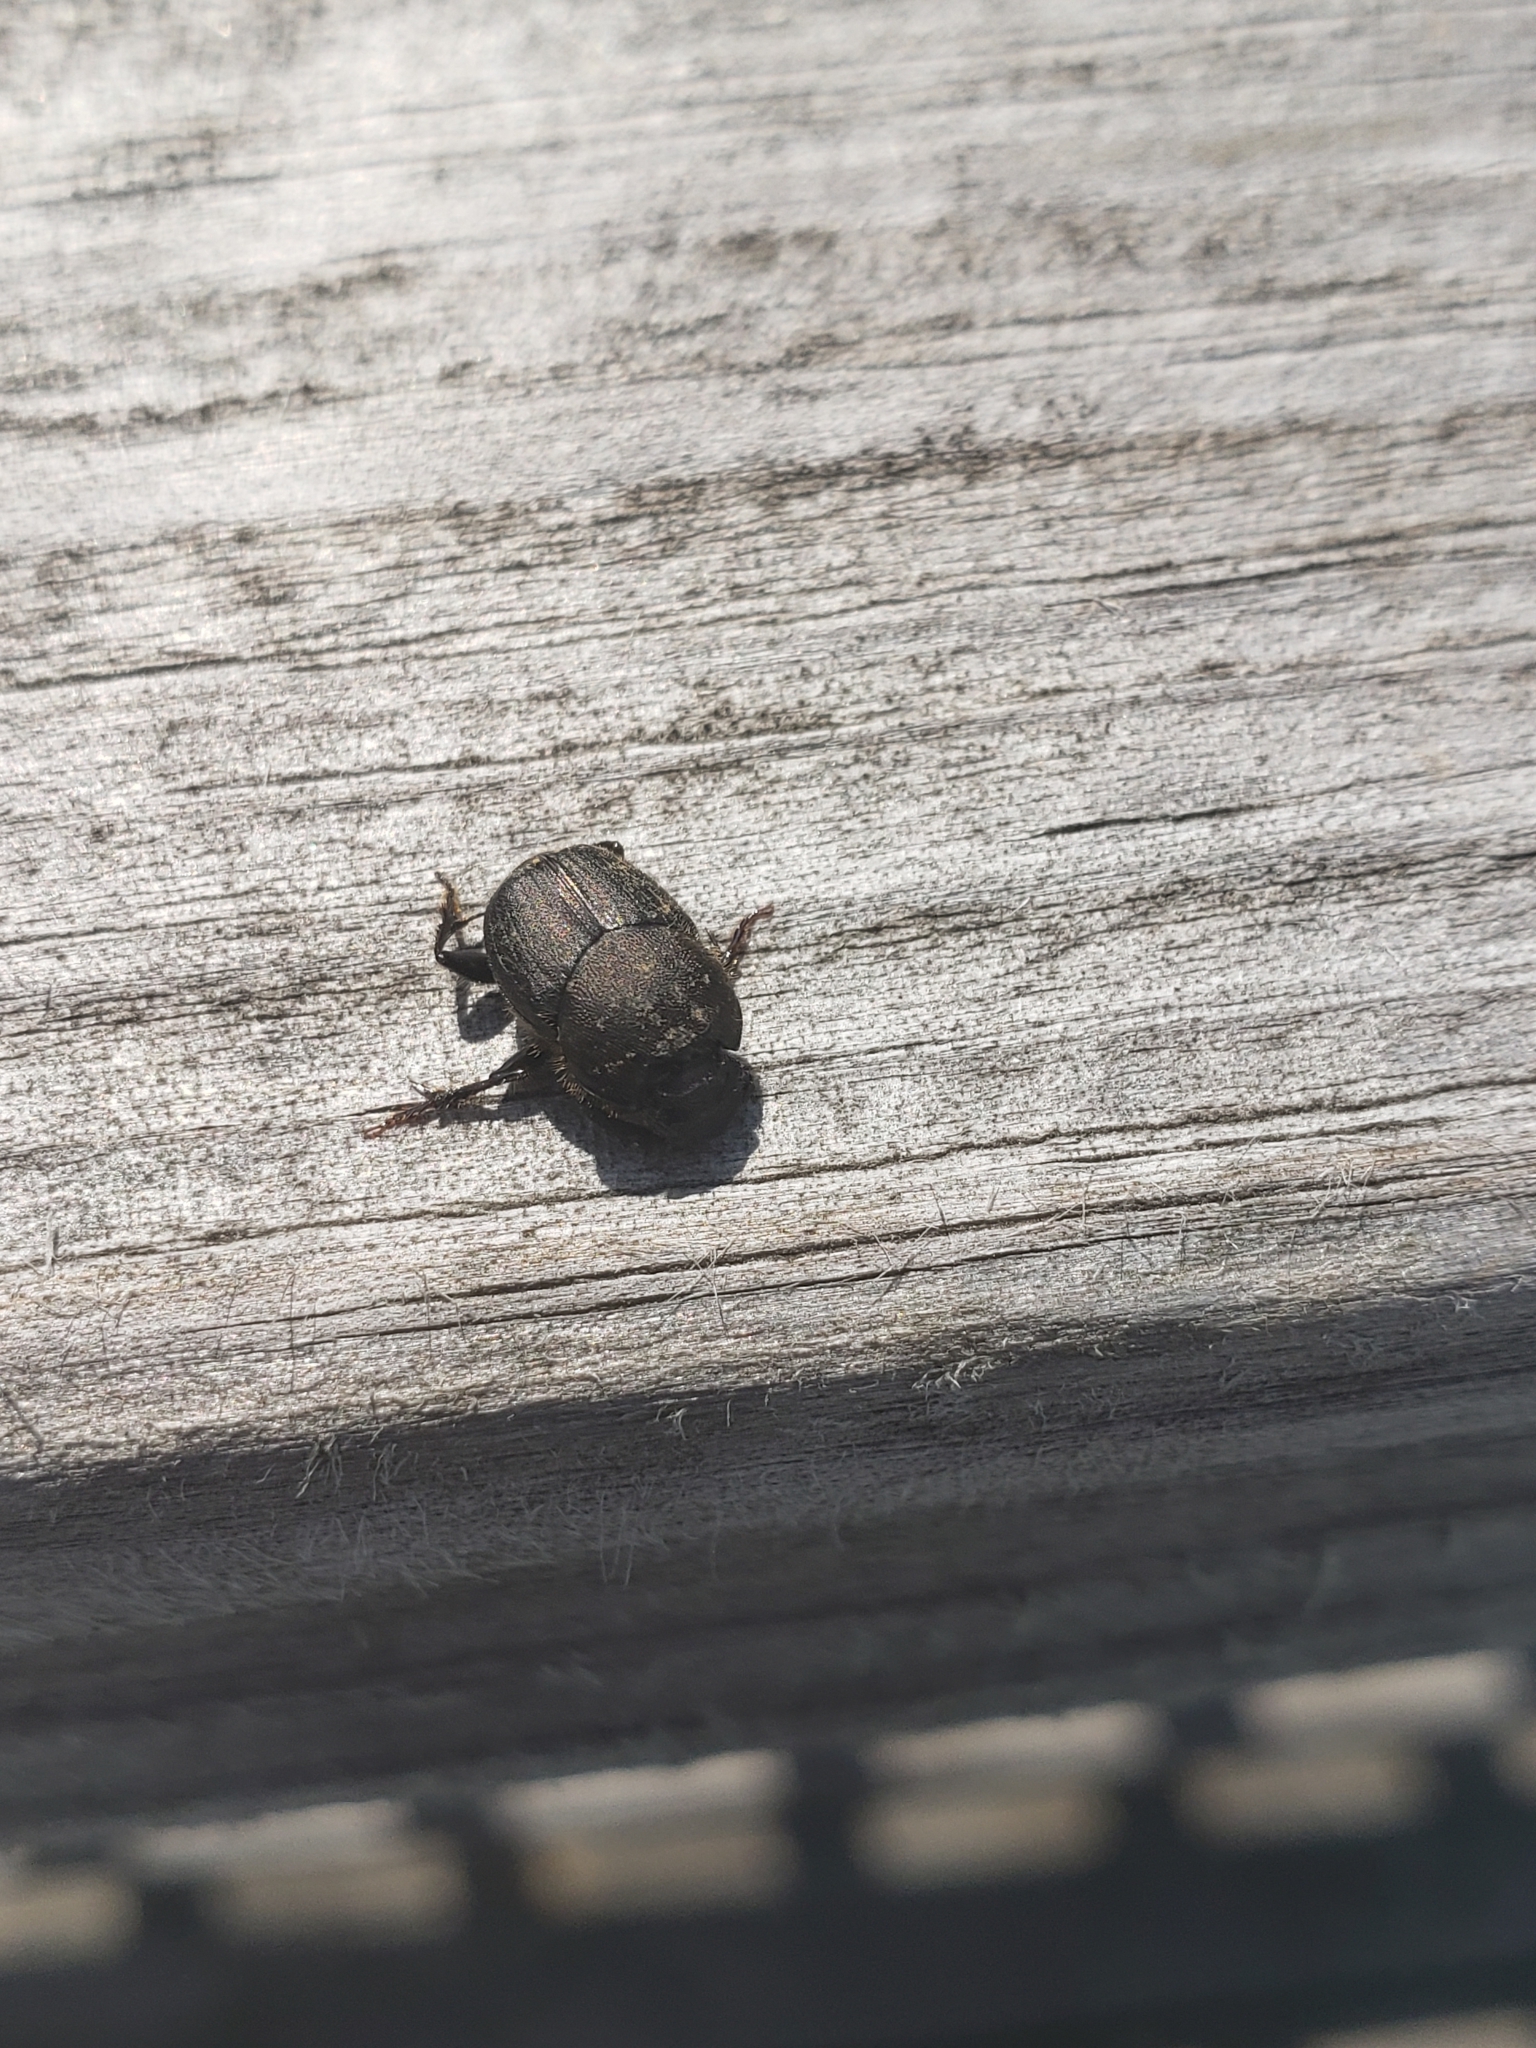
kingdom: Animalia
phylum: Arthropoda
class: Insecta
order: Coleoptera
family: Scarabaeidae
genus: Onthophagus
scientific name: Onthophagus hecate
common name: Scooped scarab
